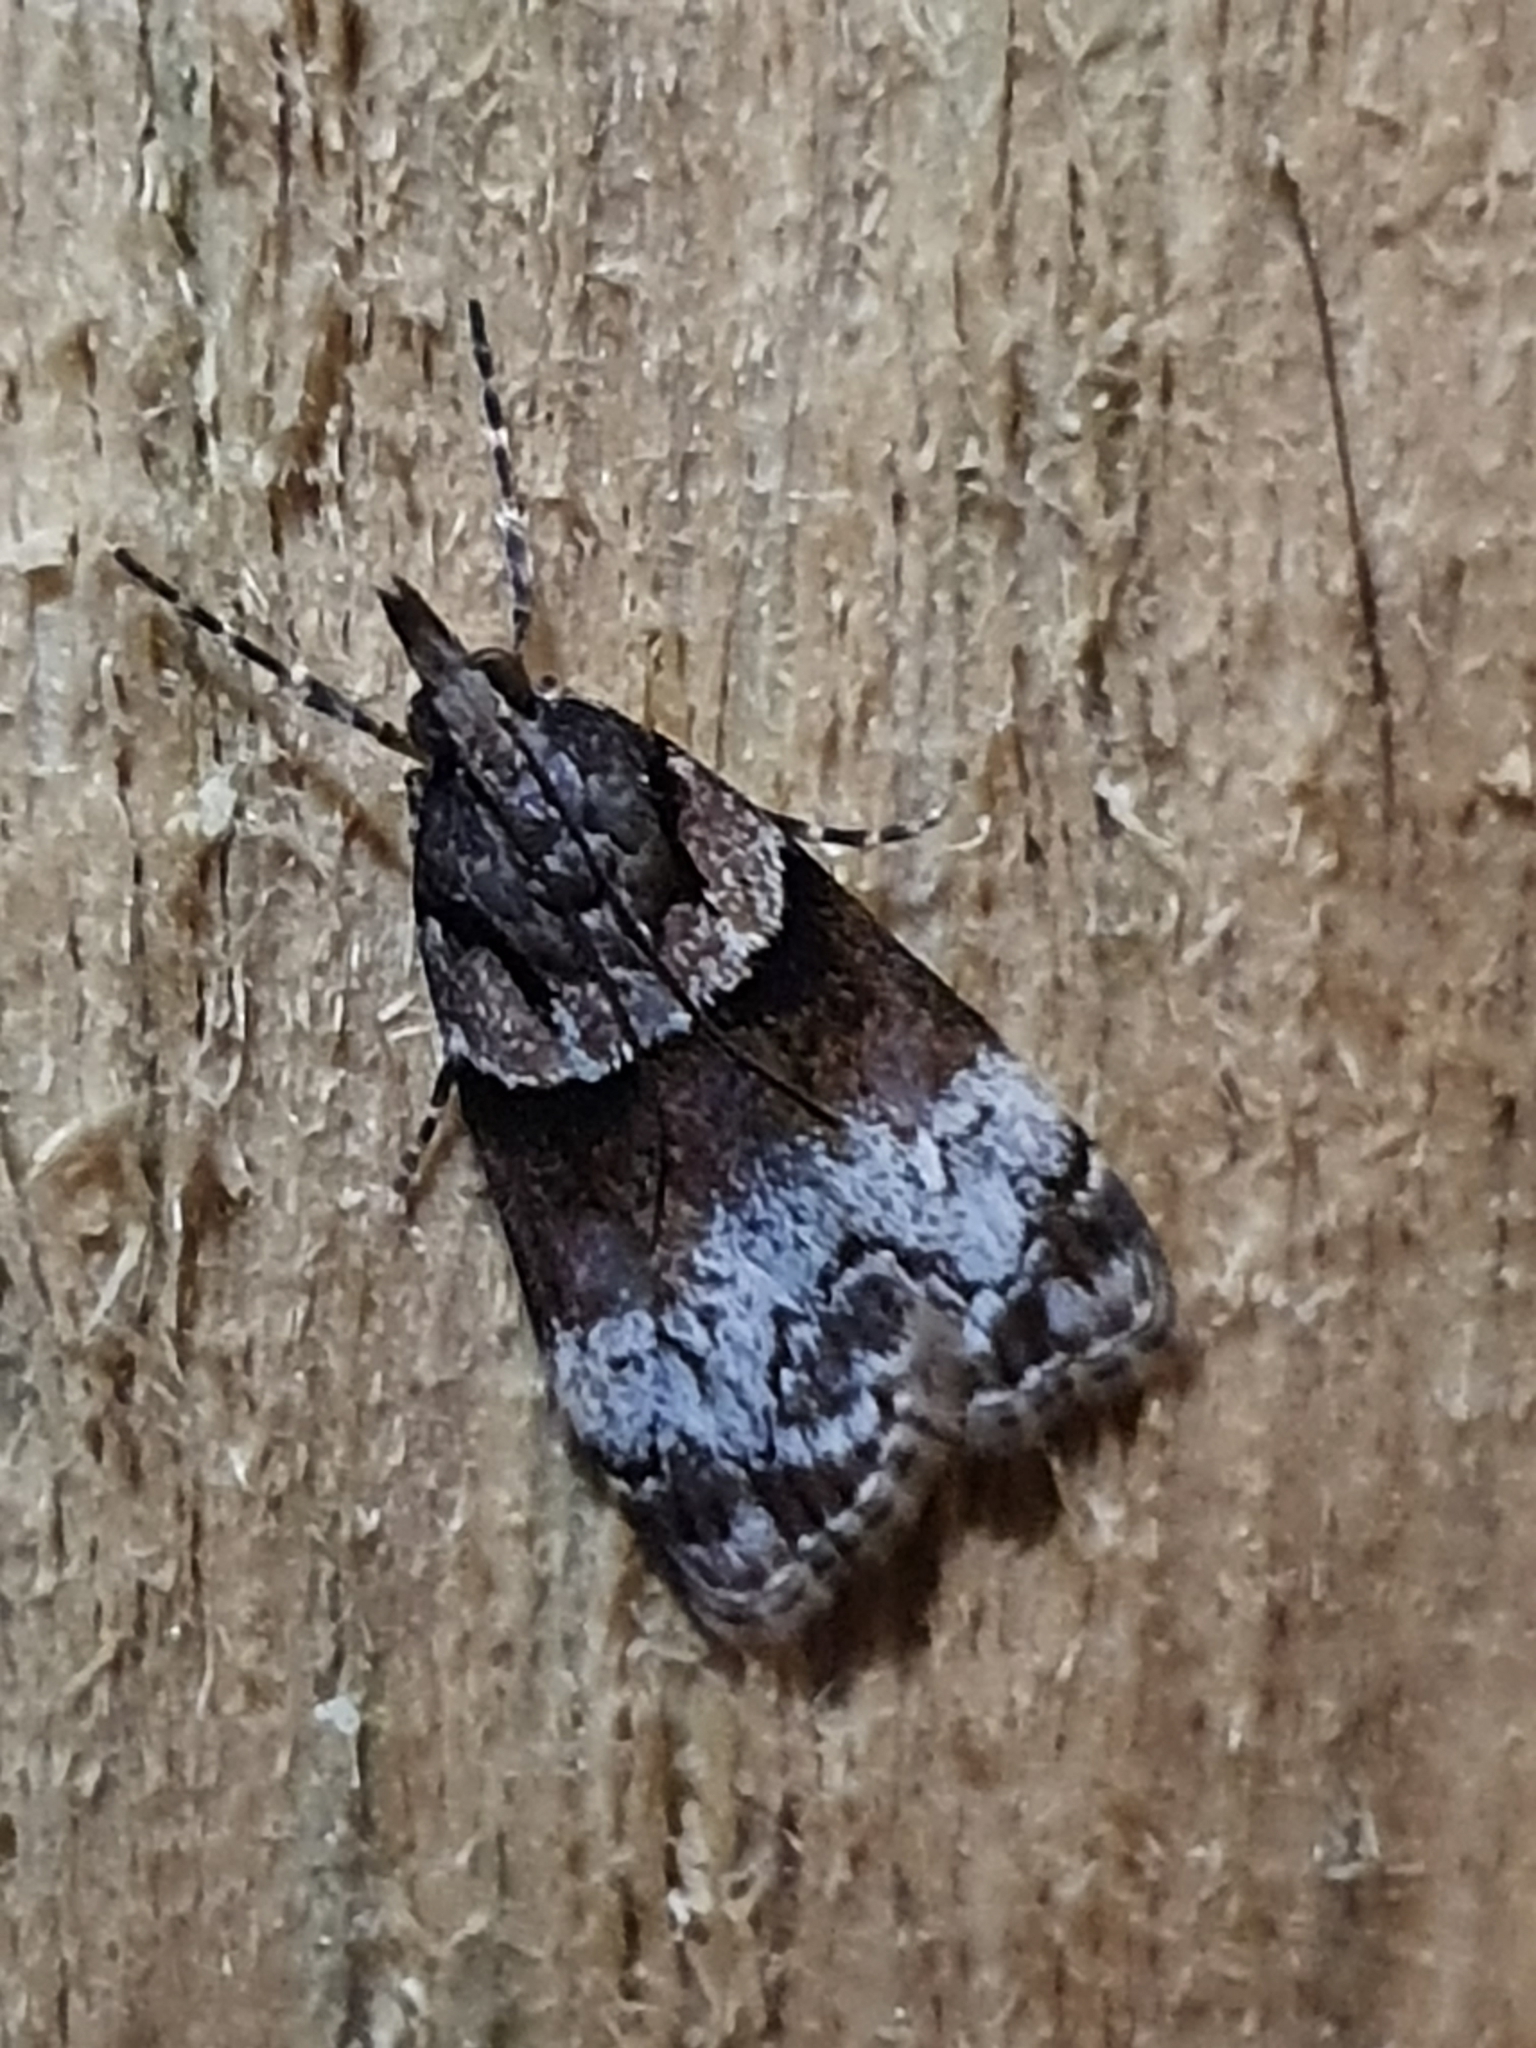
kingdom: Animalia
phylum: Arthropoda
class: Insecta
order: Lepidoptera
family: Crambidae
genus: Eudonia
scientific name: Eudonia colpota
